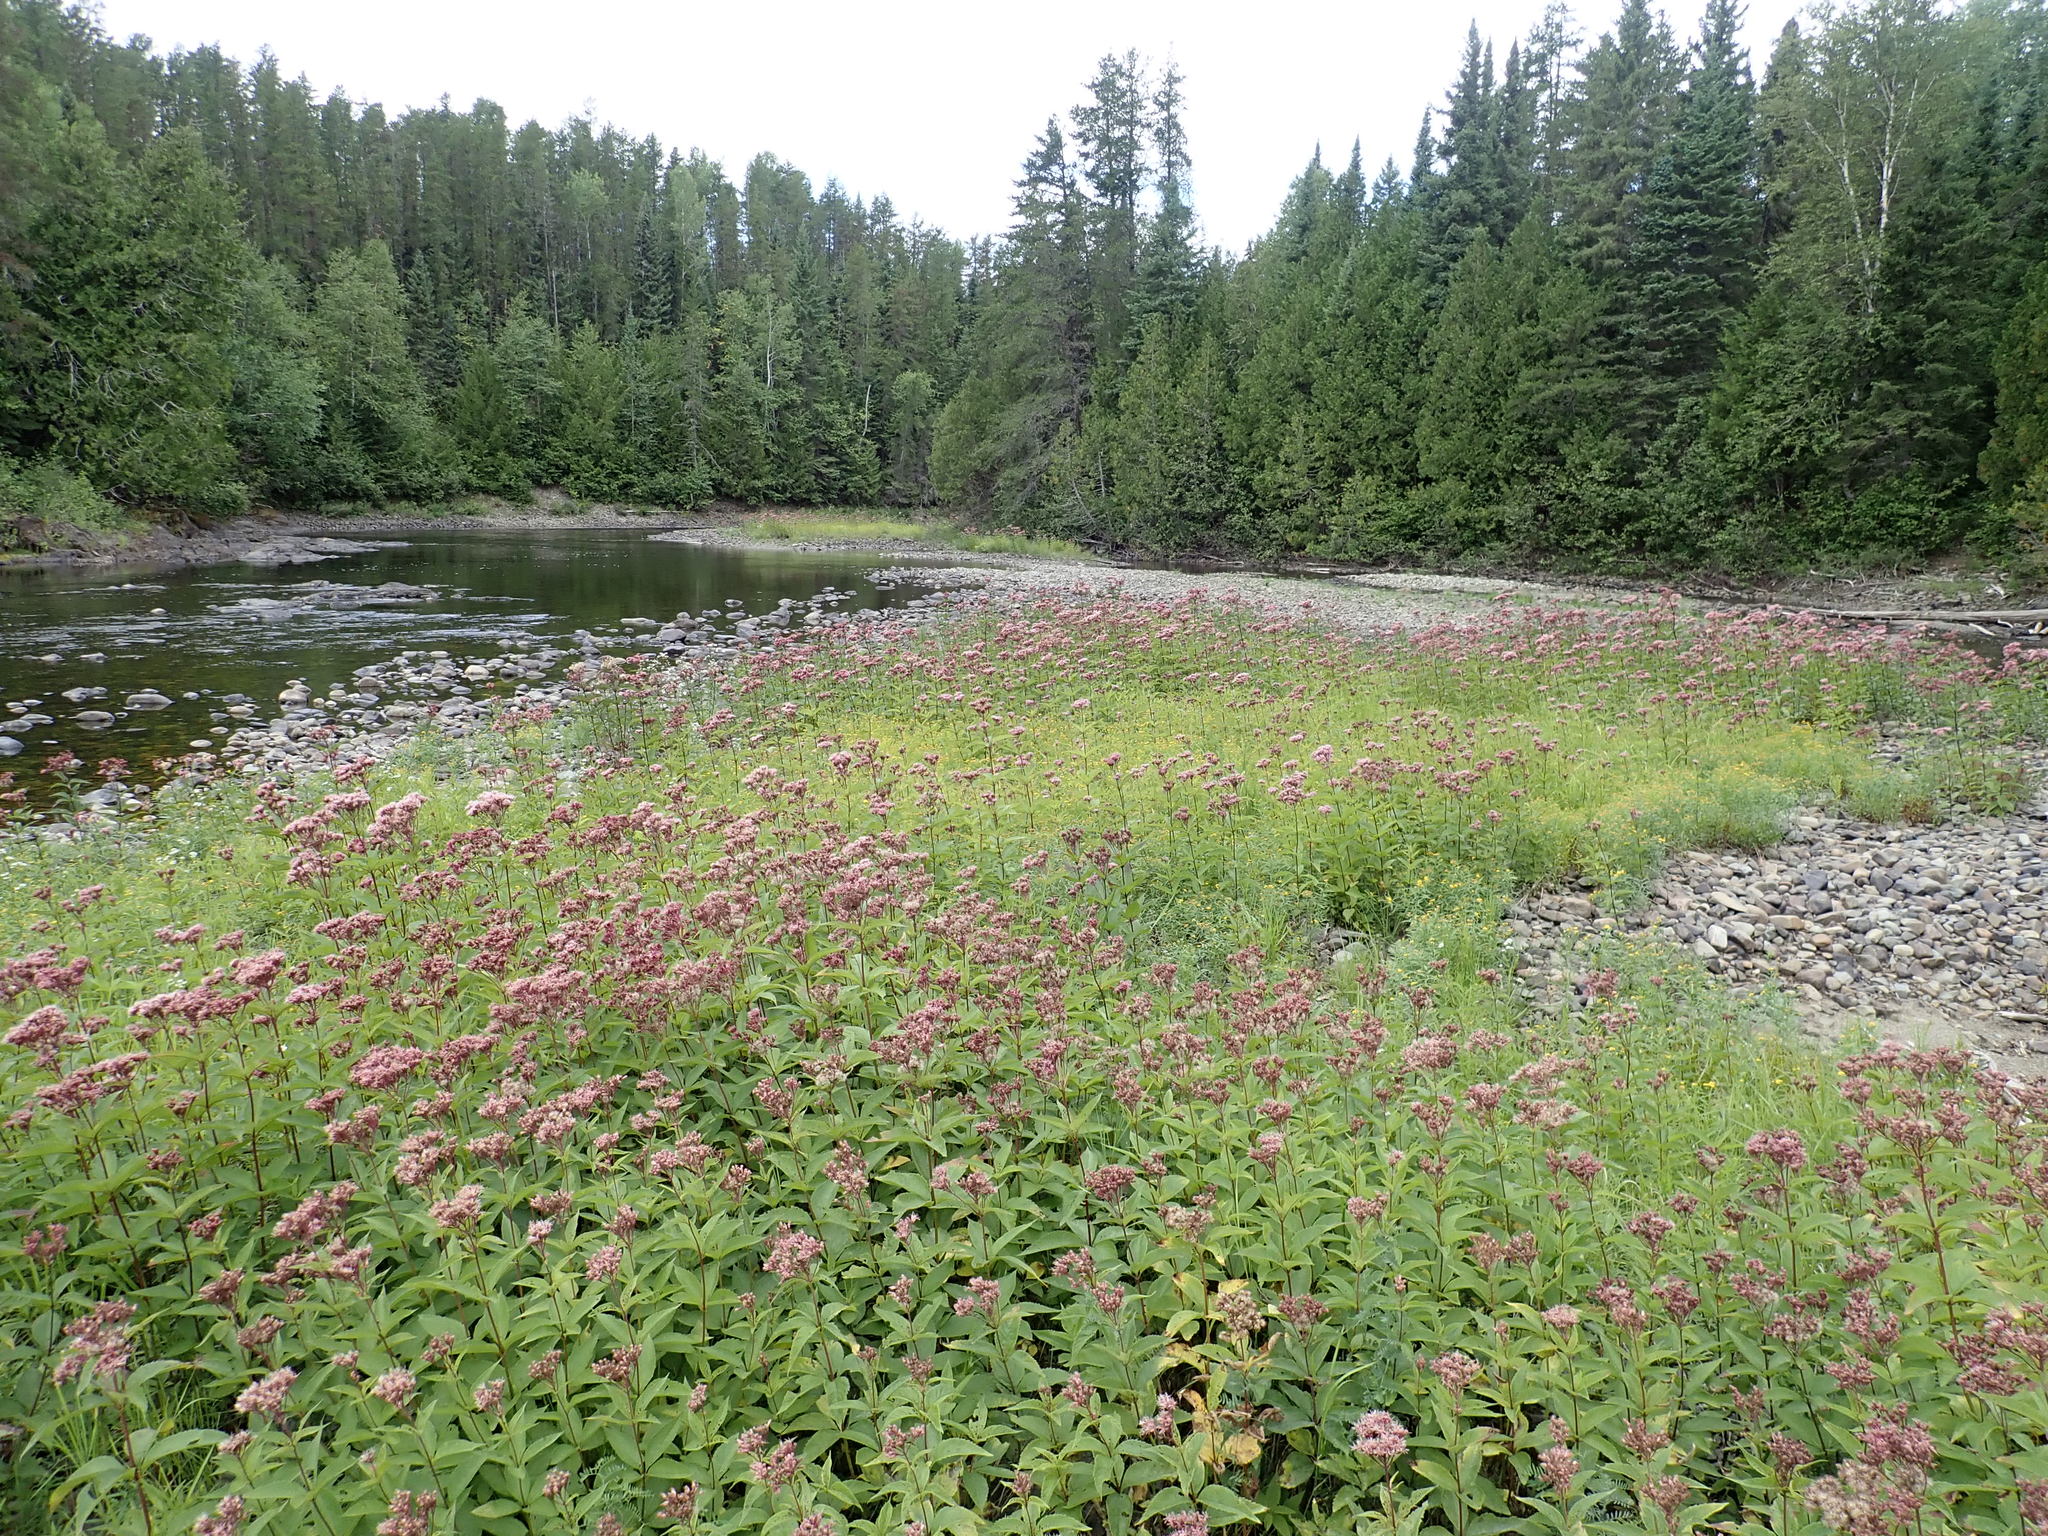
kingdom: Plantae
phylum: Tracheophyta
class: Magnoliopsida
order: Asterales
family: Asteraceae
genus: Eutrochium
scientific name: Eutrochium maculatum
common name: Spotted joe pye weed
